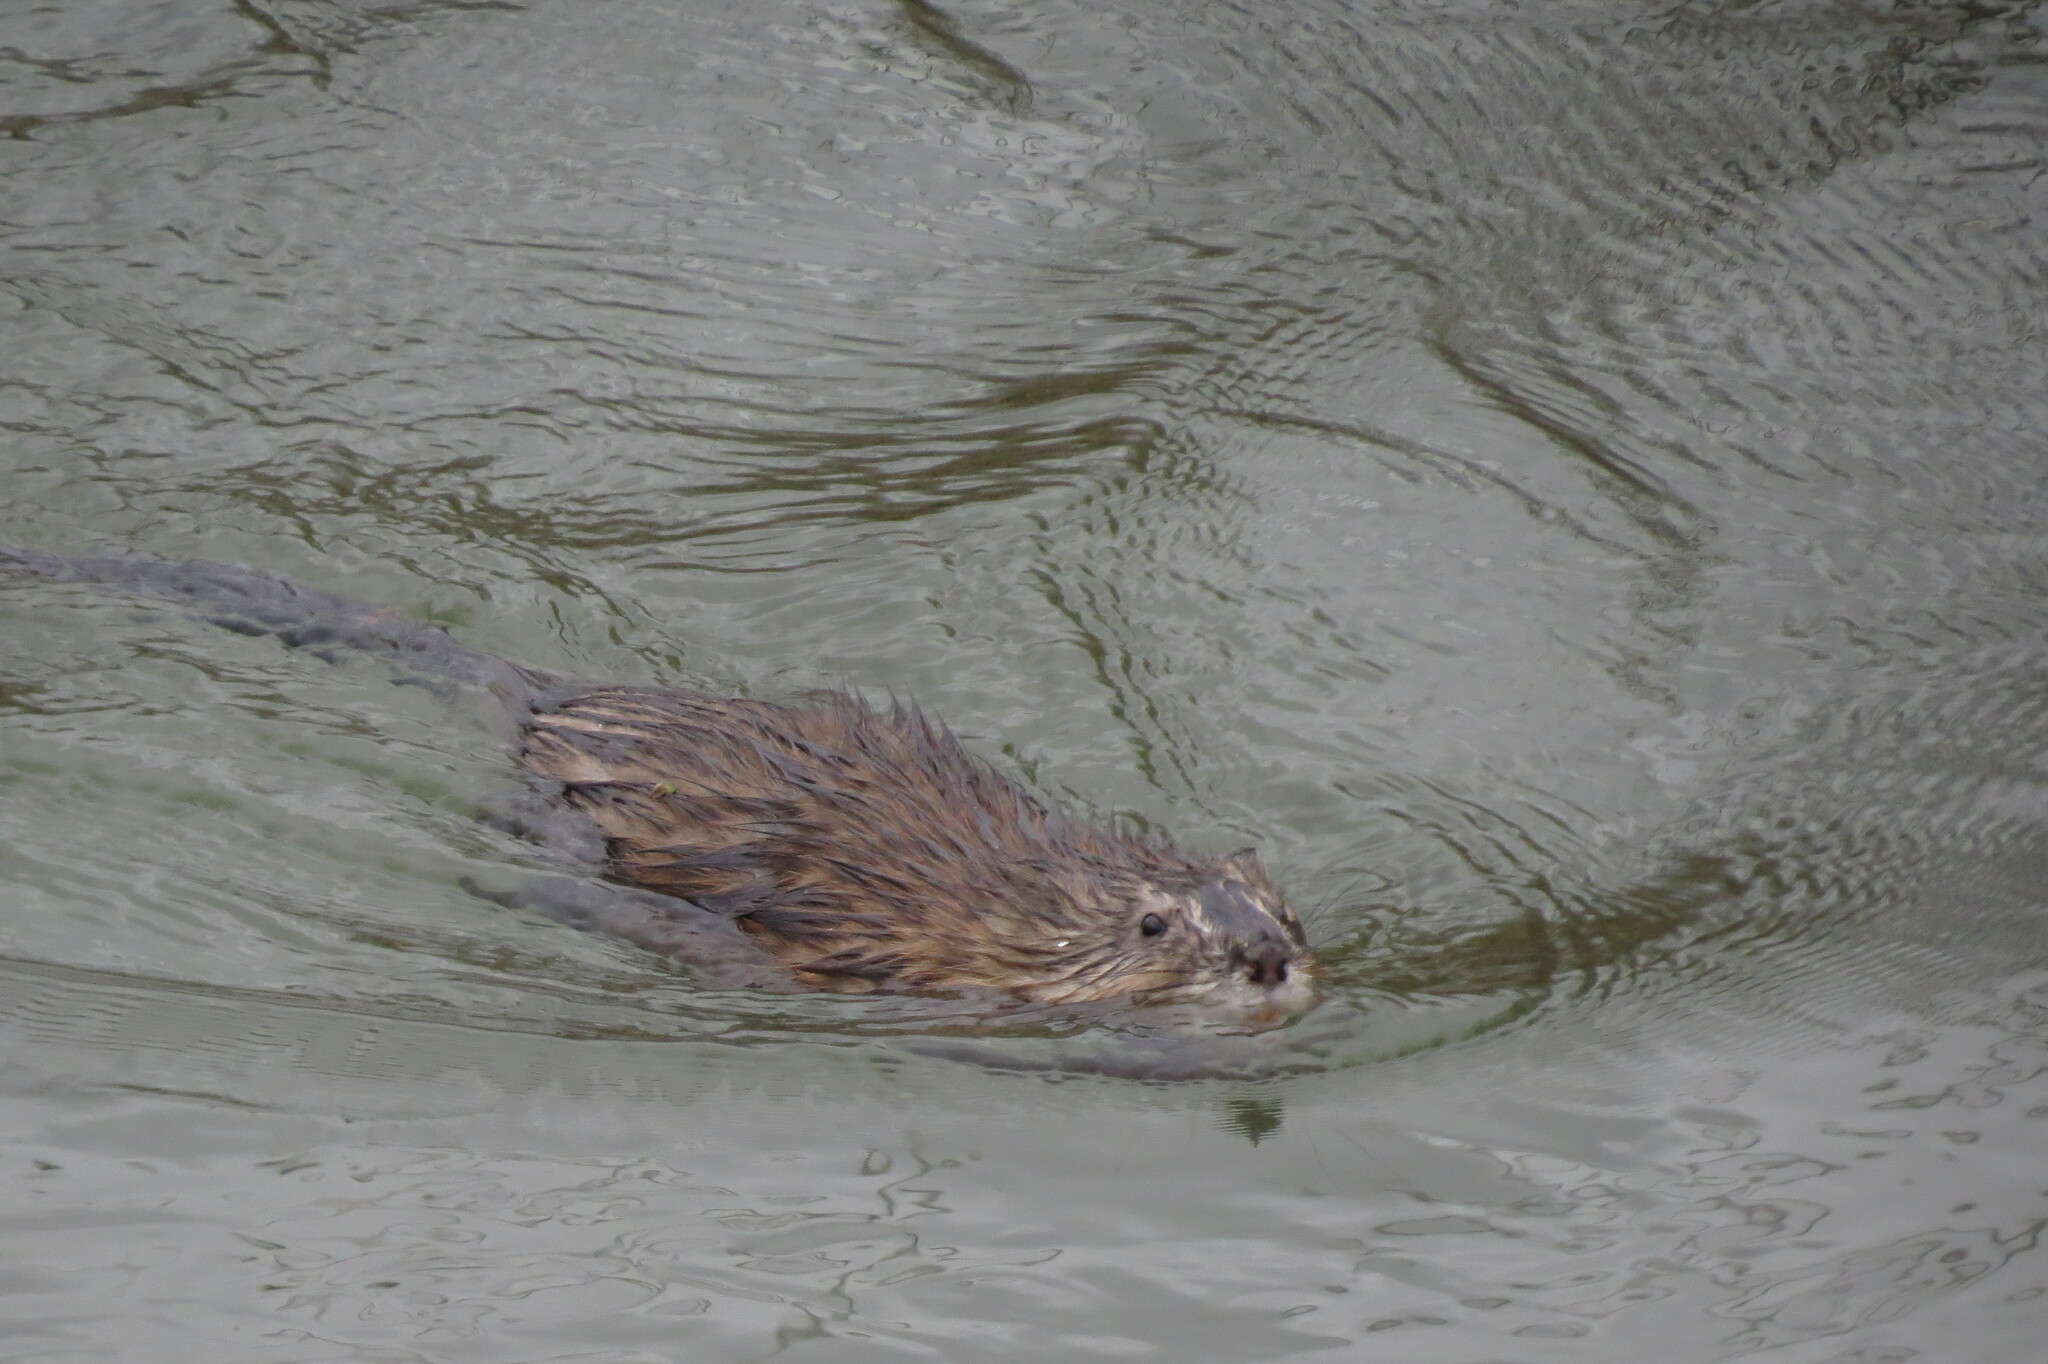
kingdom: Animalia
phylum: Chordata
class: Mammalia
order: Rodentia
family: Cricetidae
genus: Ondatra
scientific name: Ondatra zibethicus
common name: Muskrat
